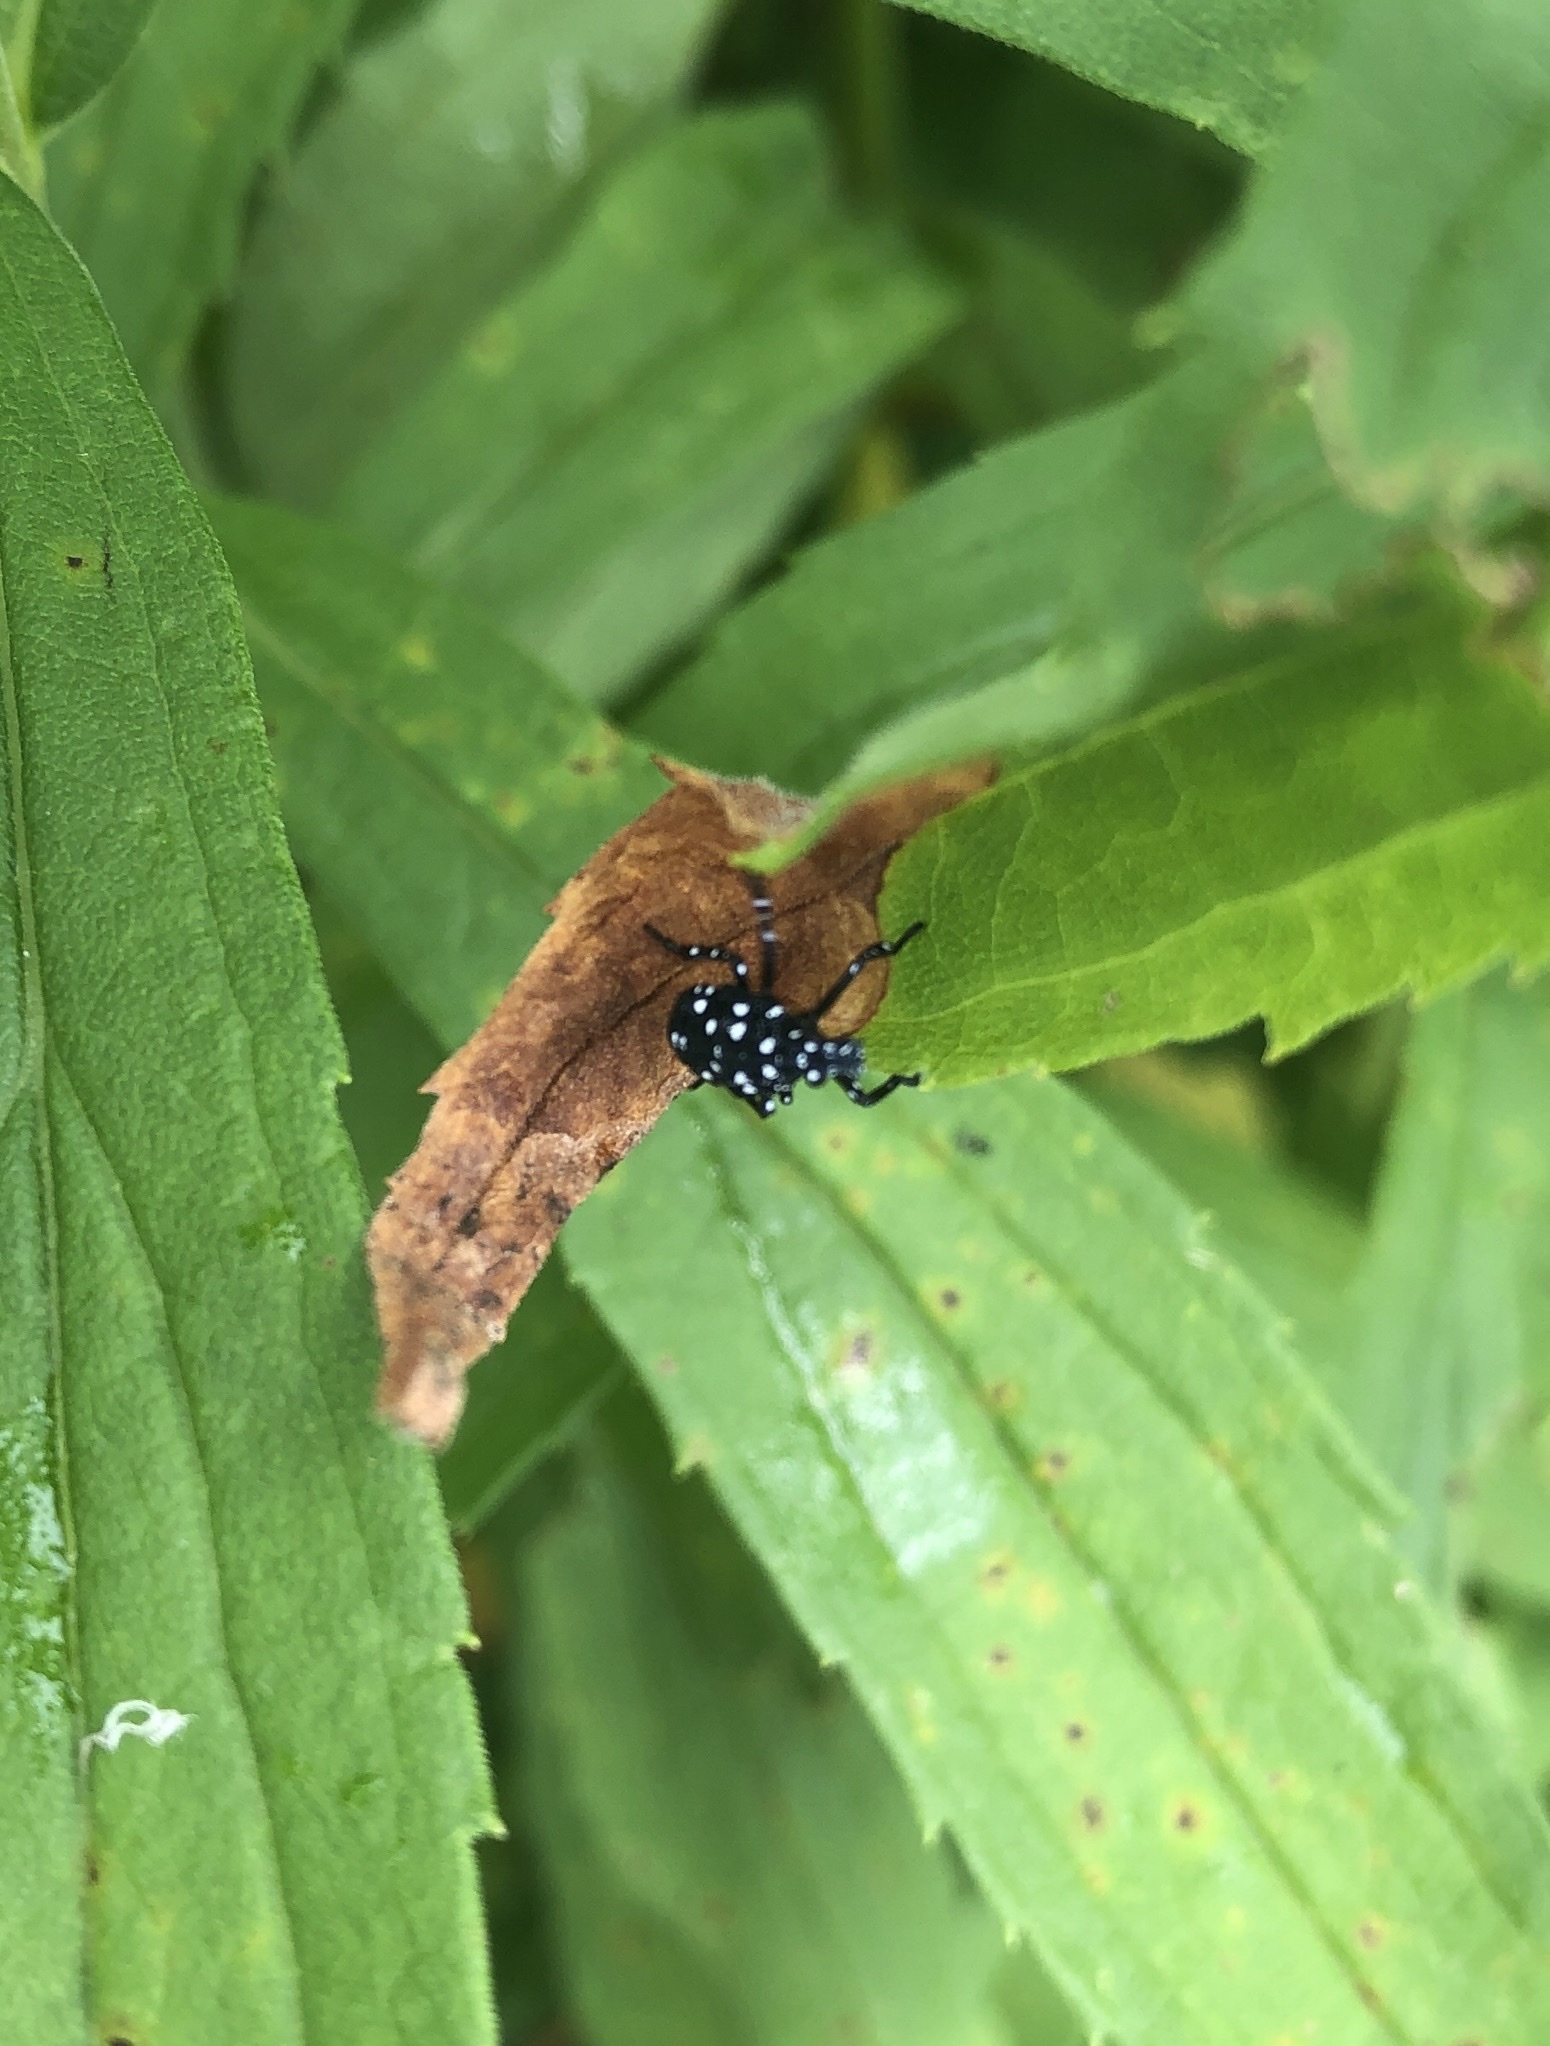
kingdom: Animalia
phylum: Arthropoda
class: Insecta
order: Hemiptera
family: Fulgoridae
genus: Lycorma
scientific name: Lycorma delicatula
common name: Spotted lanternfly
